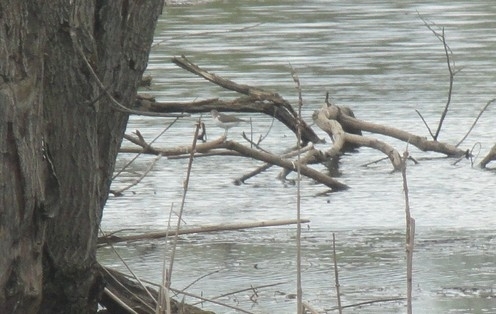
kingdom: Animalia
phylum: Chordata
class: Aves
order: Charadriiformes
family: Scolopacidae
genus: Actitis
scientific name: Actitis hypoleucos
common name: Common sandpiper
